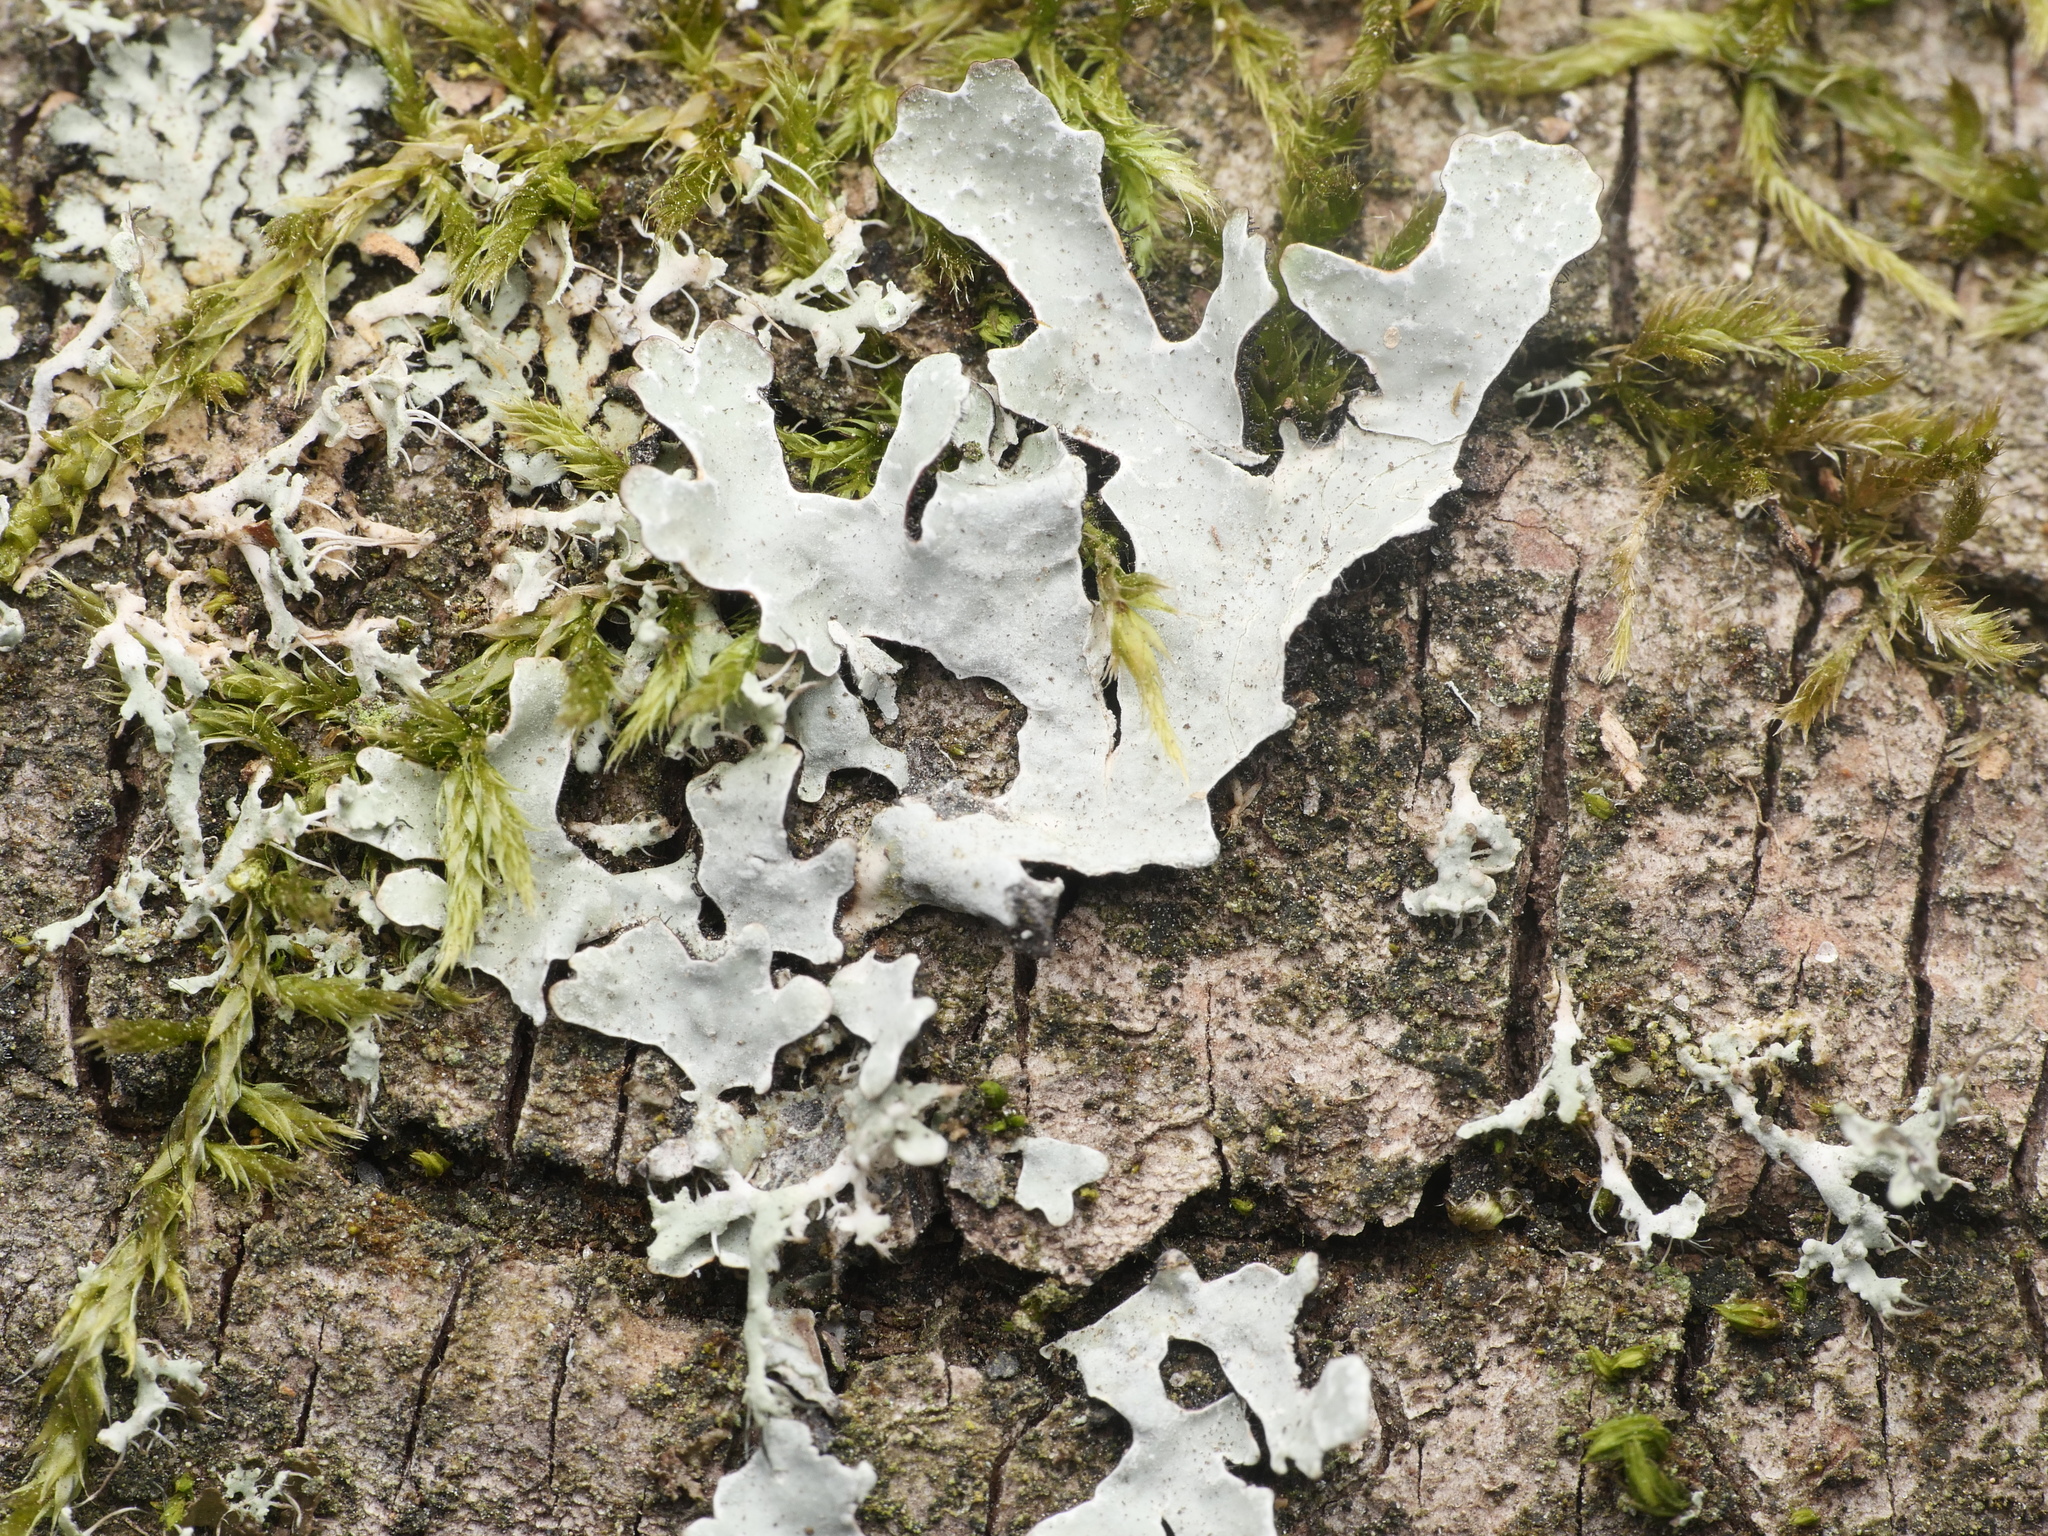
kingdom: Fungi
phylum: Ascomycota
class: Lecanoromycetes
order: Lecanorales
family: Parmeliaceae
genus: Parmelia
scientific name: Parmelia sulcata
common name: Netted shield lichen
